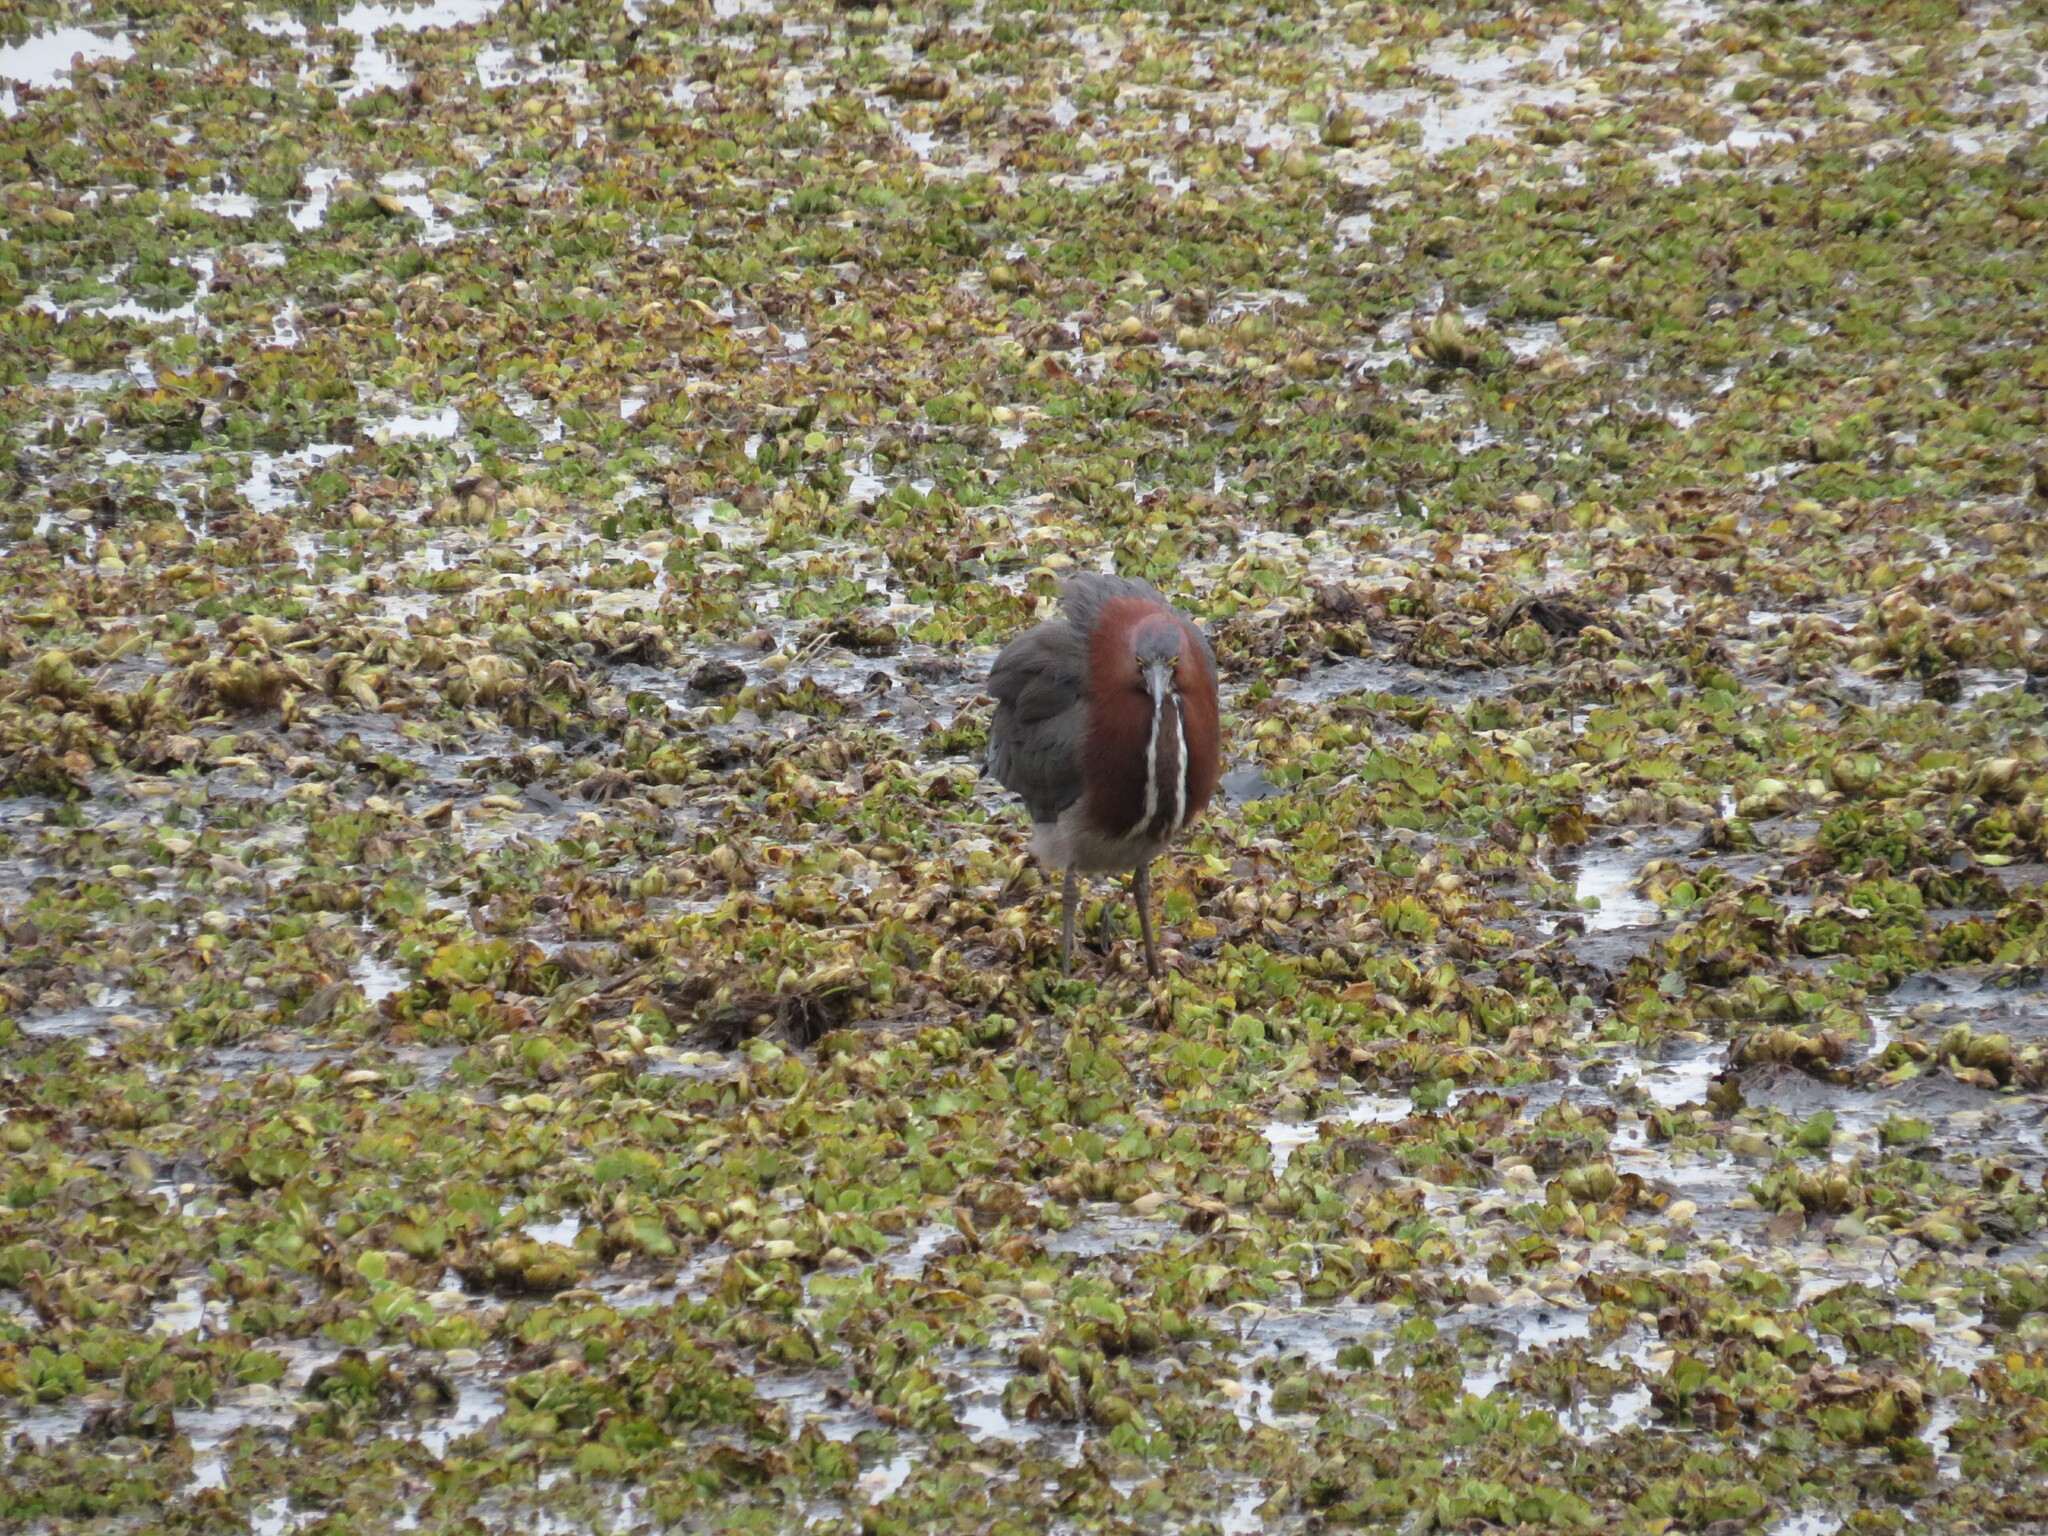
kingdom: Animalia
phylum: Chordata
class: Aves
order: Pelecaniformes
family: Ardeidae
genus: Tigrisoma
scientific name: Tigrisoma lineatum
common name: Rufescent tiger-heron
